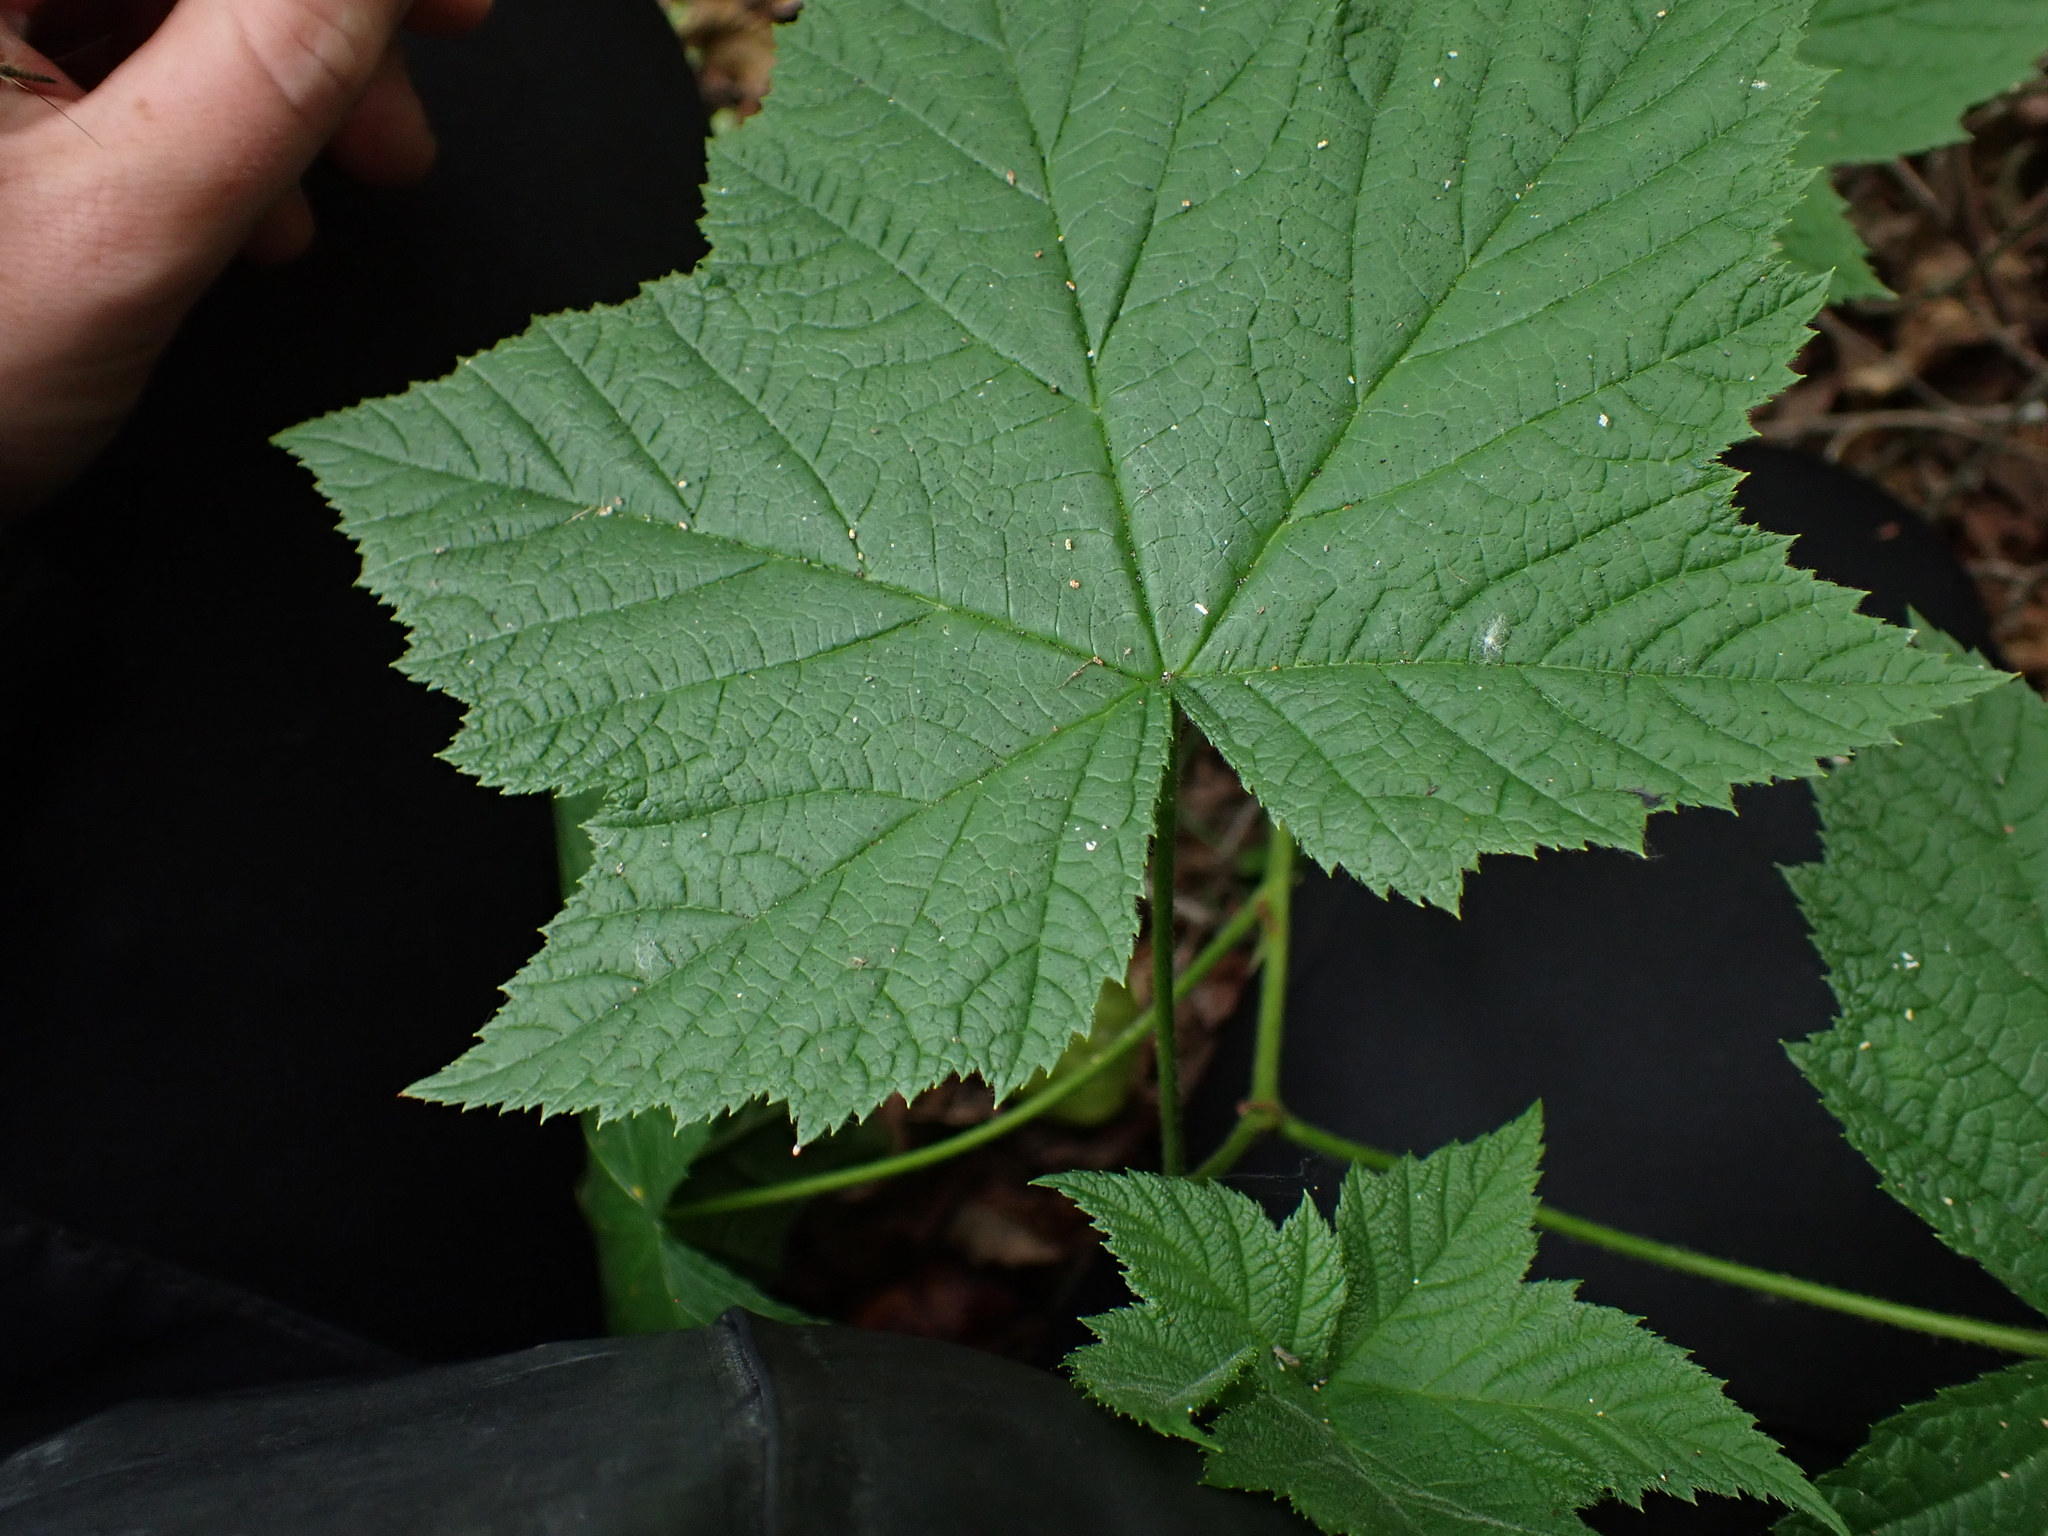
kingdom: Plantae
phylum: Tracheophyta
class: Magnoliopsida
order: Rosales
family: Rosaceae
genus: Rubus
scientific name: Rubus parviflorus
